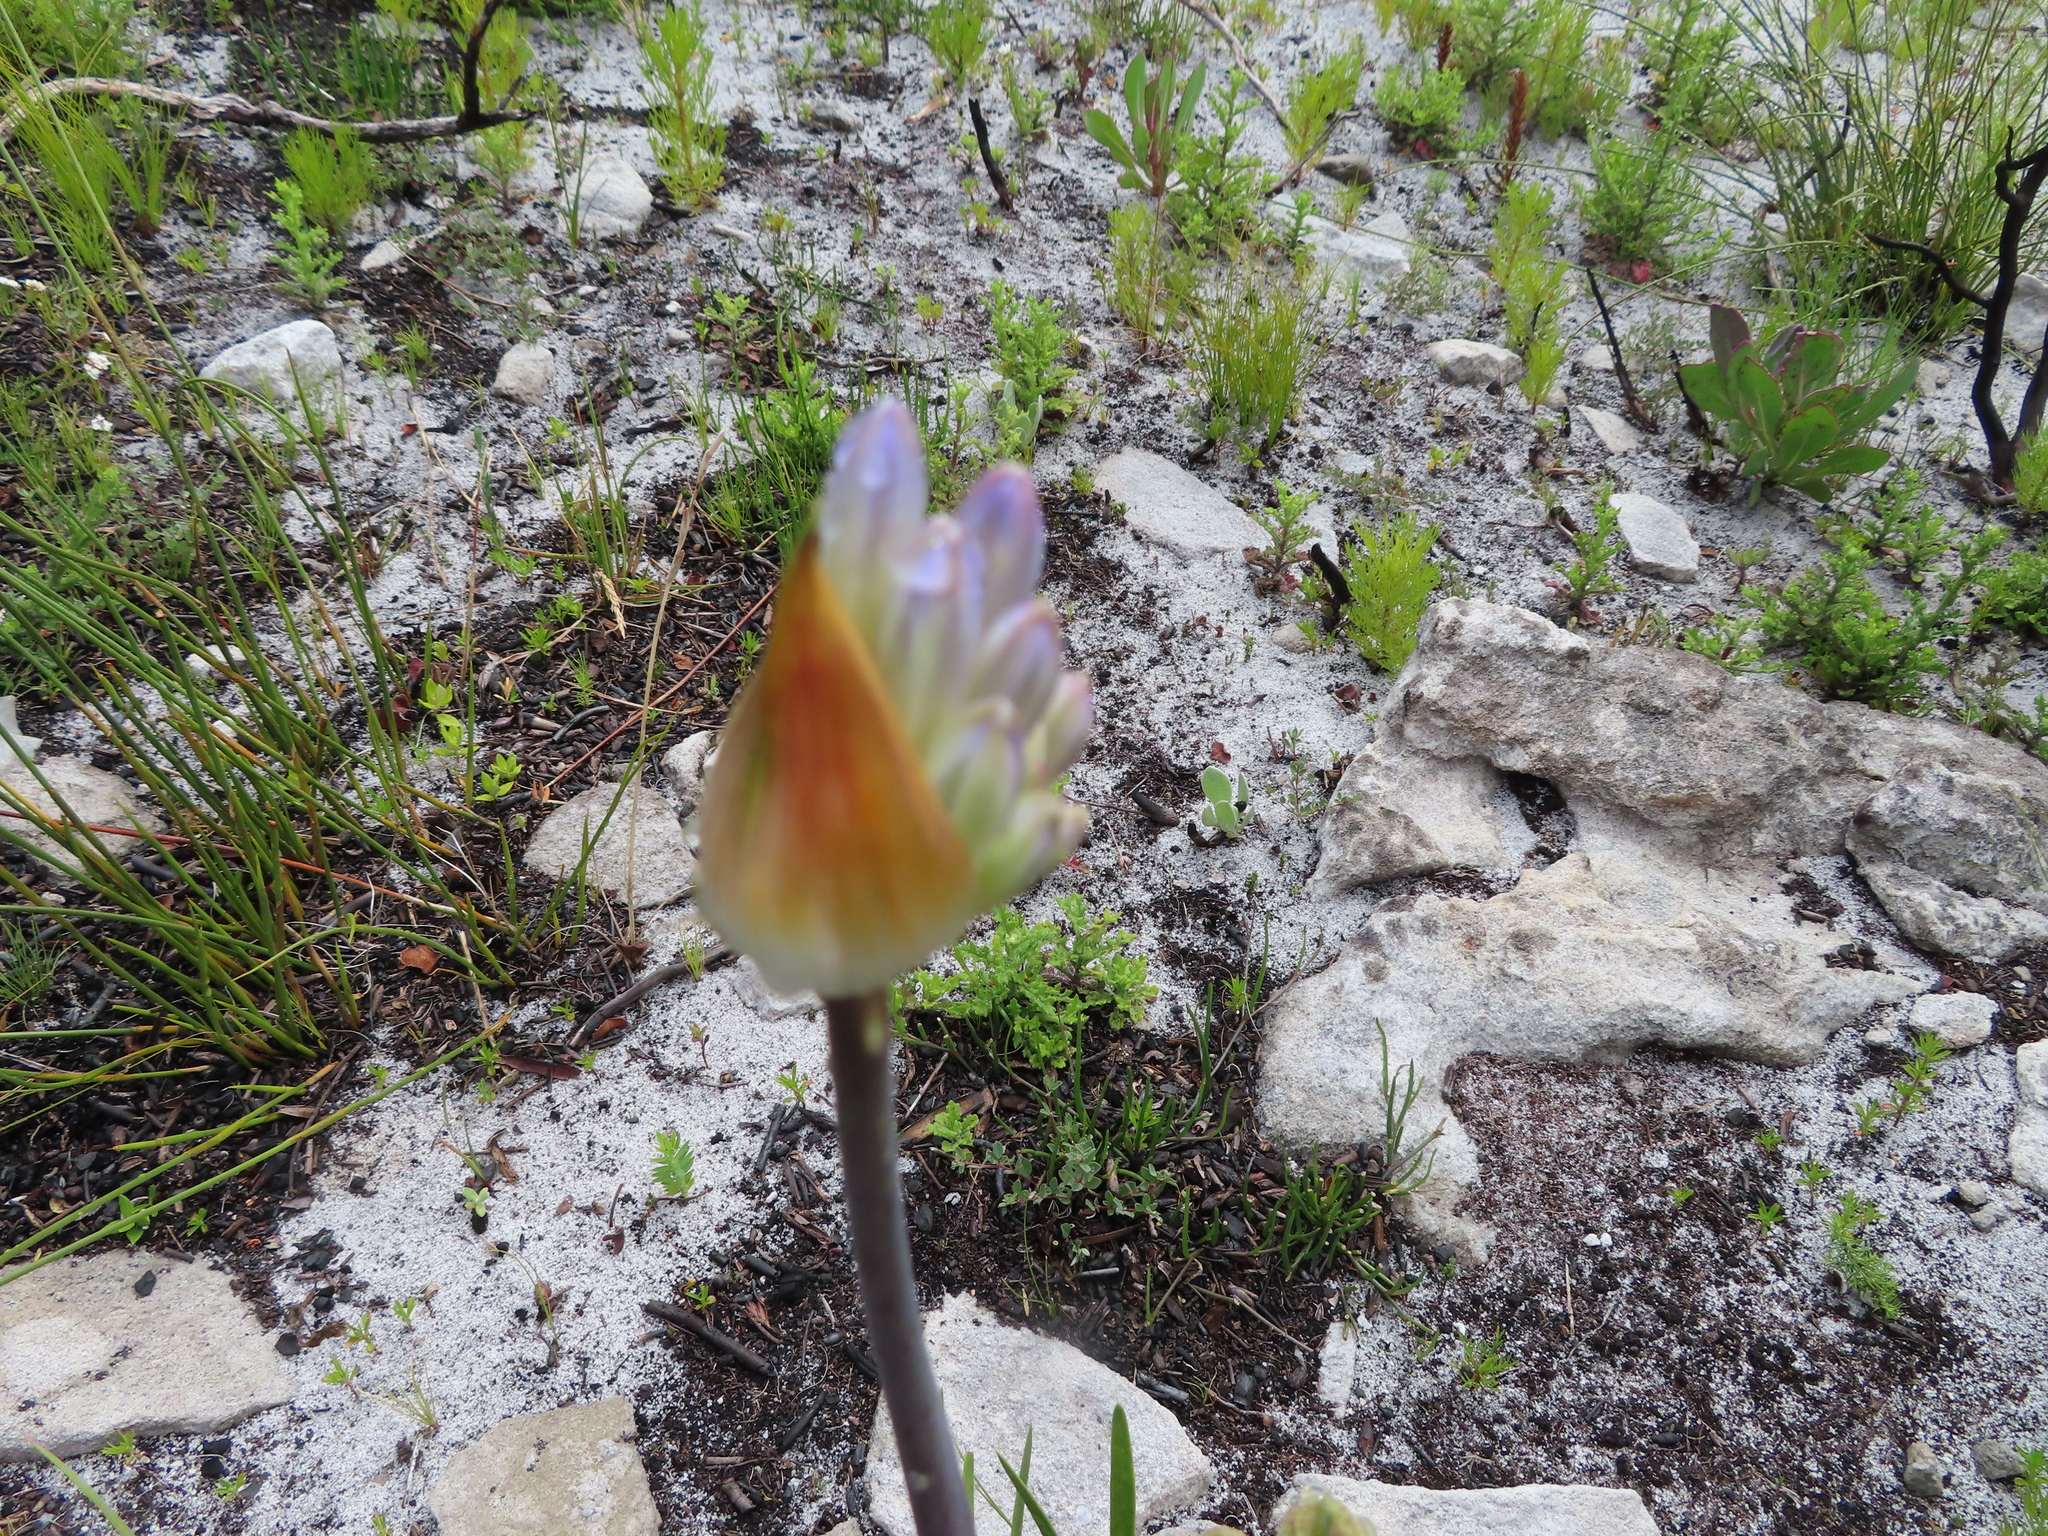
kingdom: Plantae
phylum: Tracheophyta
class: Liliopsida
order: Asparagales
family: Amaryllidaceae
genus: Agapanthus
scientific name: Agapanthus walshii
